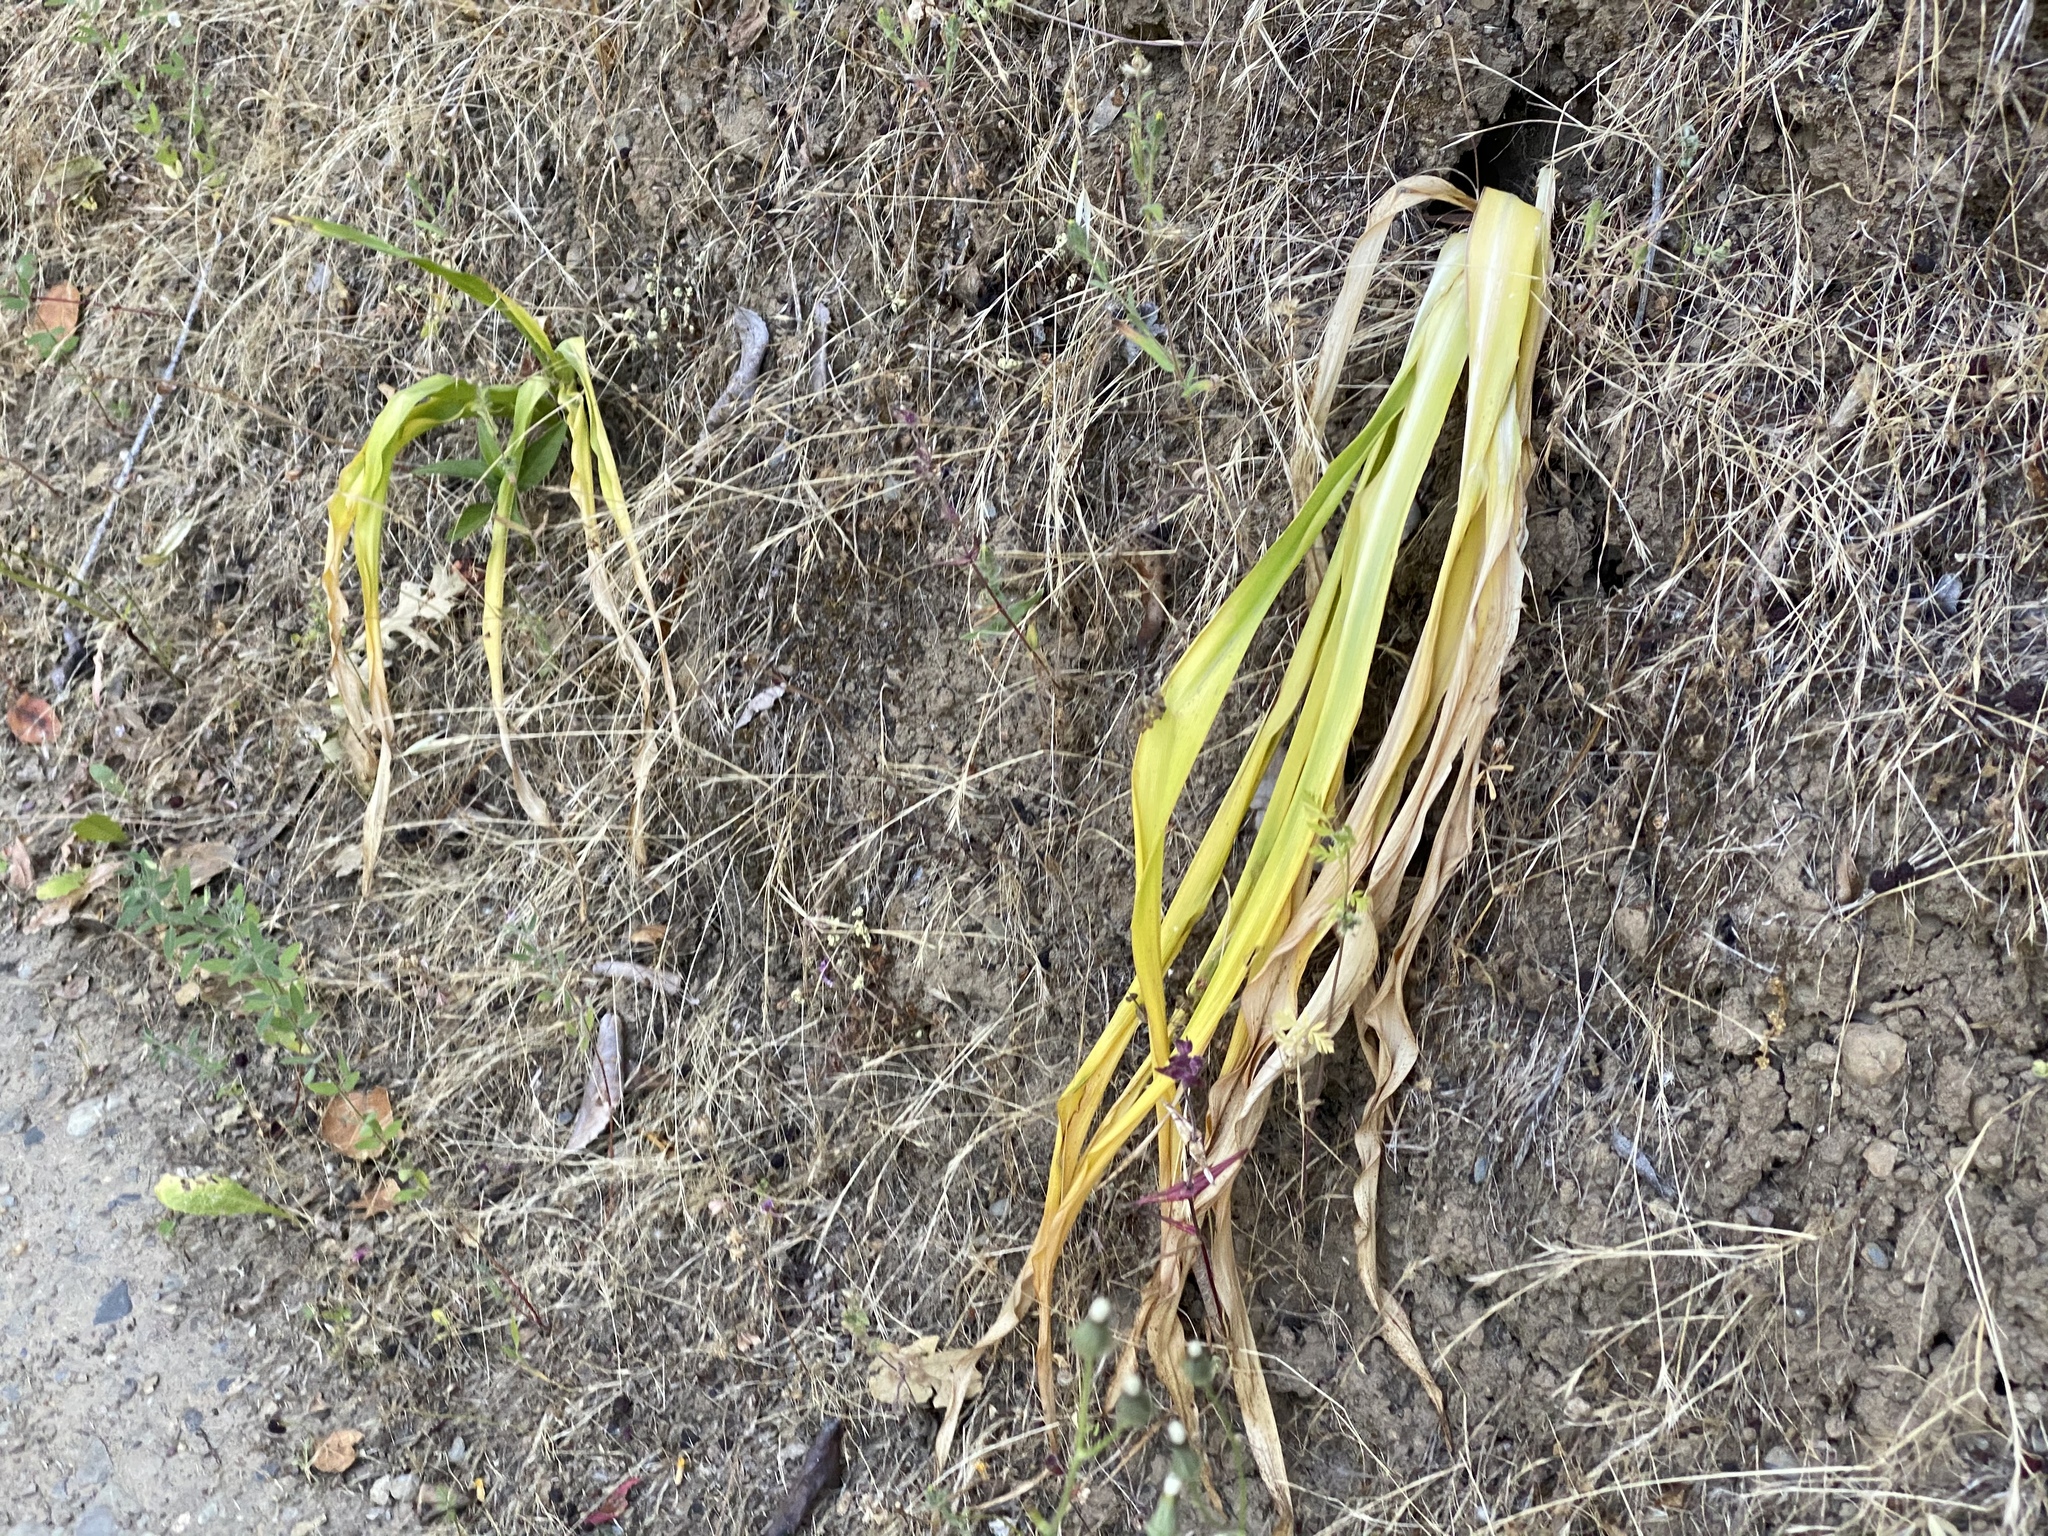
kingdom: Plantae
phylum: Tracheophyta
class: Liliopsida
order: Asparagales
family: Asparagaceae
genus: Chlorogalum
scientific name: Chlorogalum pomeridianum
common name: Amole
